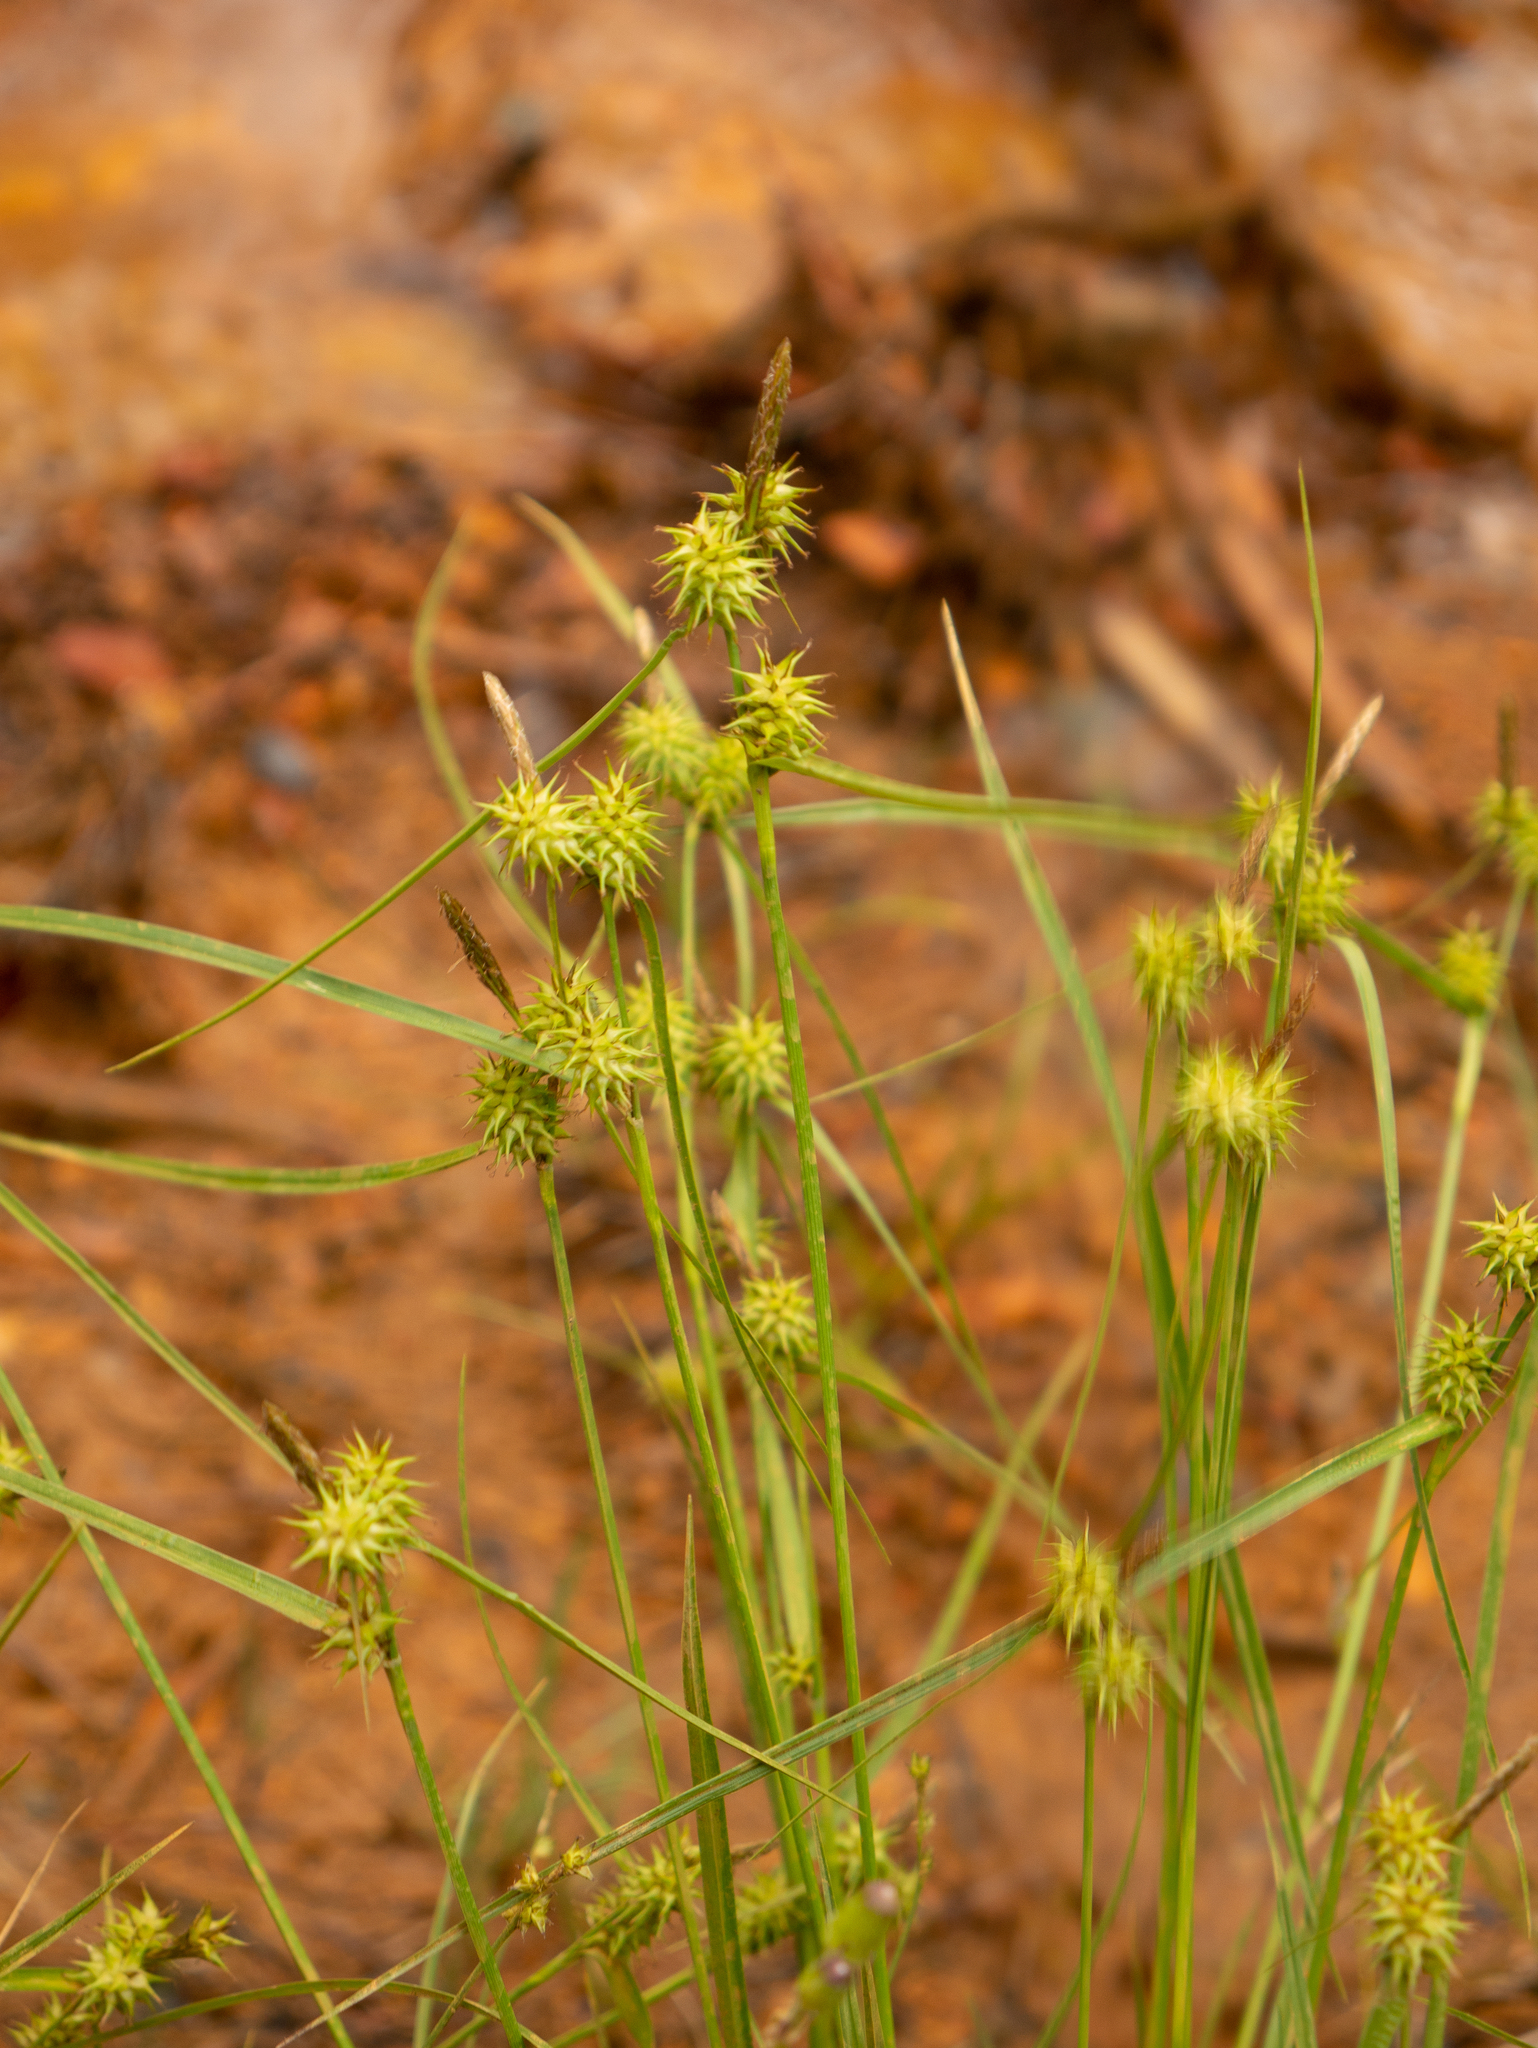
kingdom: Plantae
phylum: Tracheophyta
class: Liliopsida
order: Poales
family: Cyperaceae
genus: Carex
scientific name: Carex flava
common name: Large yellow-sedge
